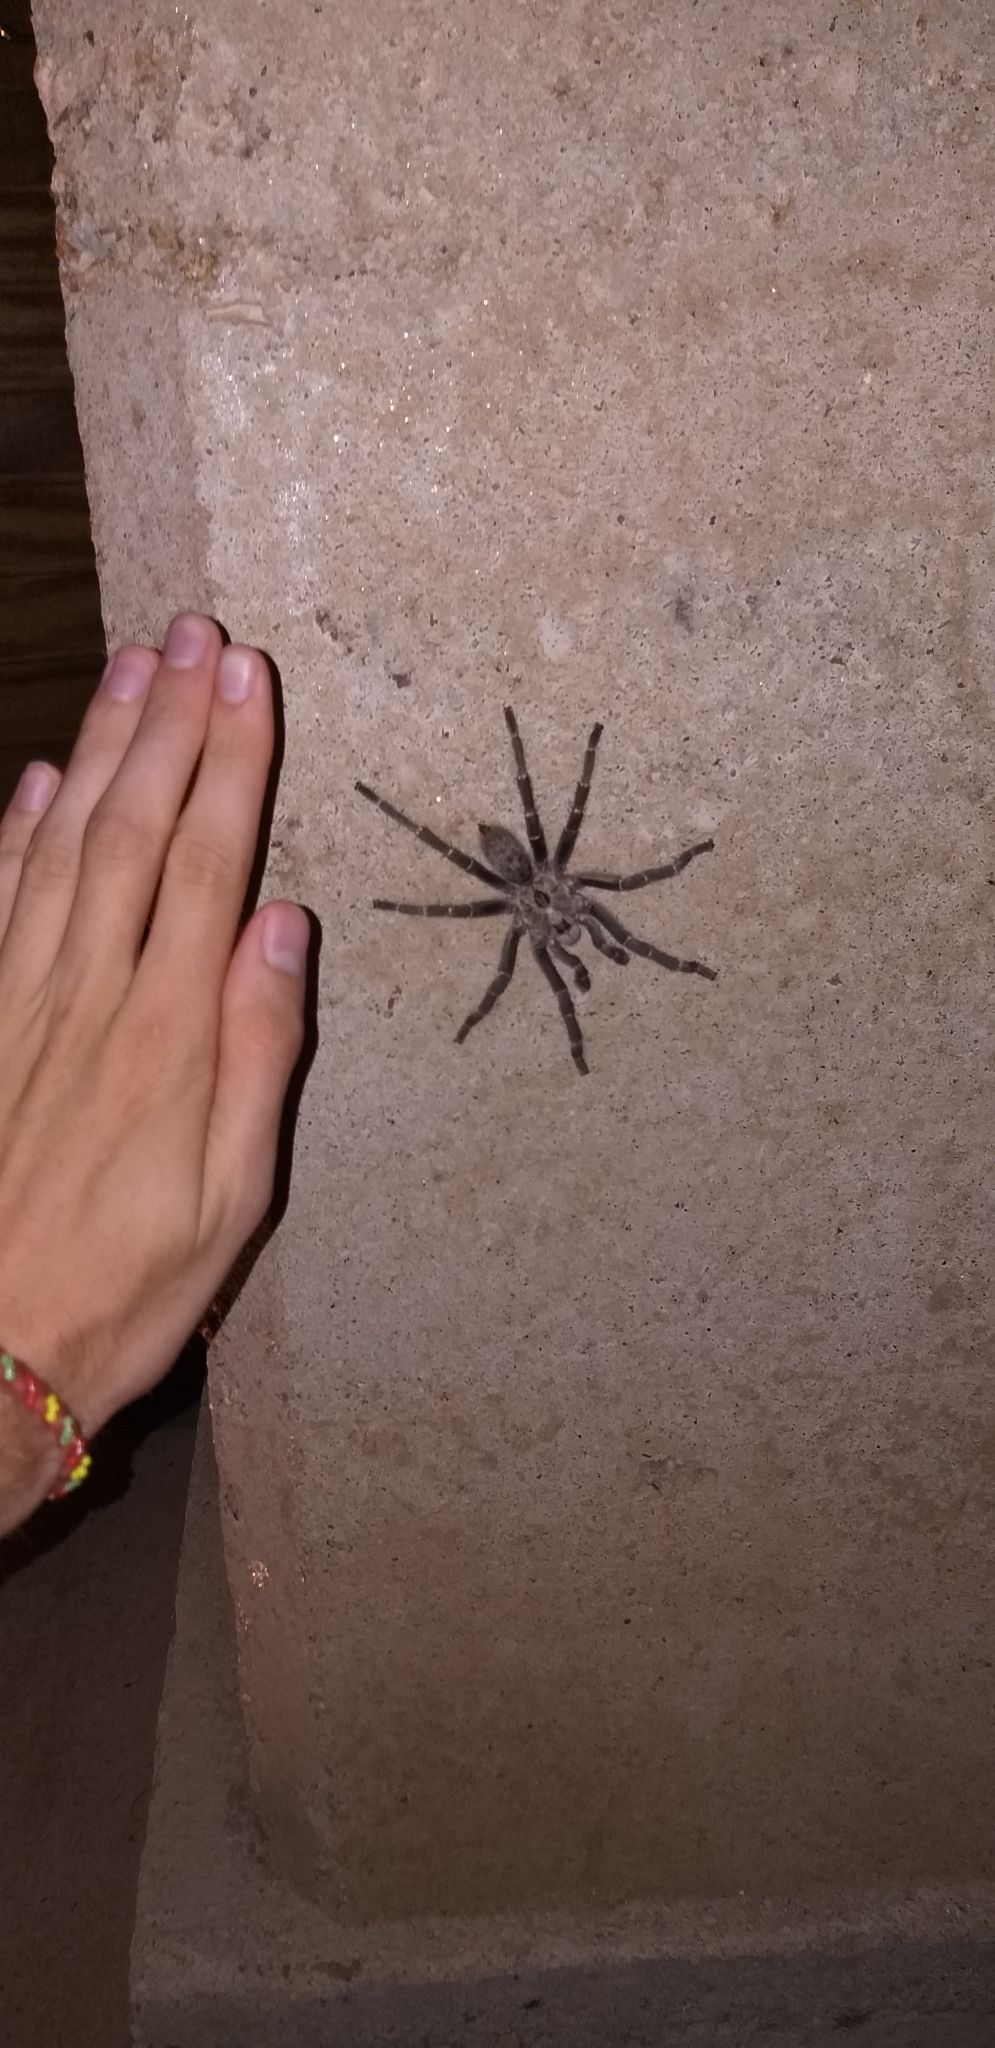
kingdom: Animalia
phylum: Arthropoda
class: Arachnida
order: Araneae
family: Theraphosidae
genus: Ceratogyrus
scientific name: Ceratogyrus darlingi
